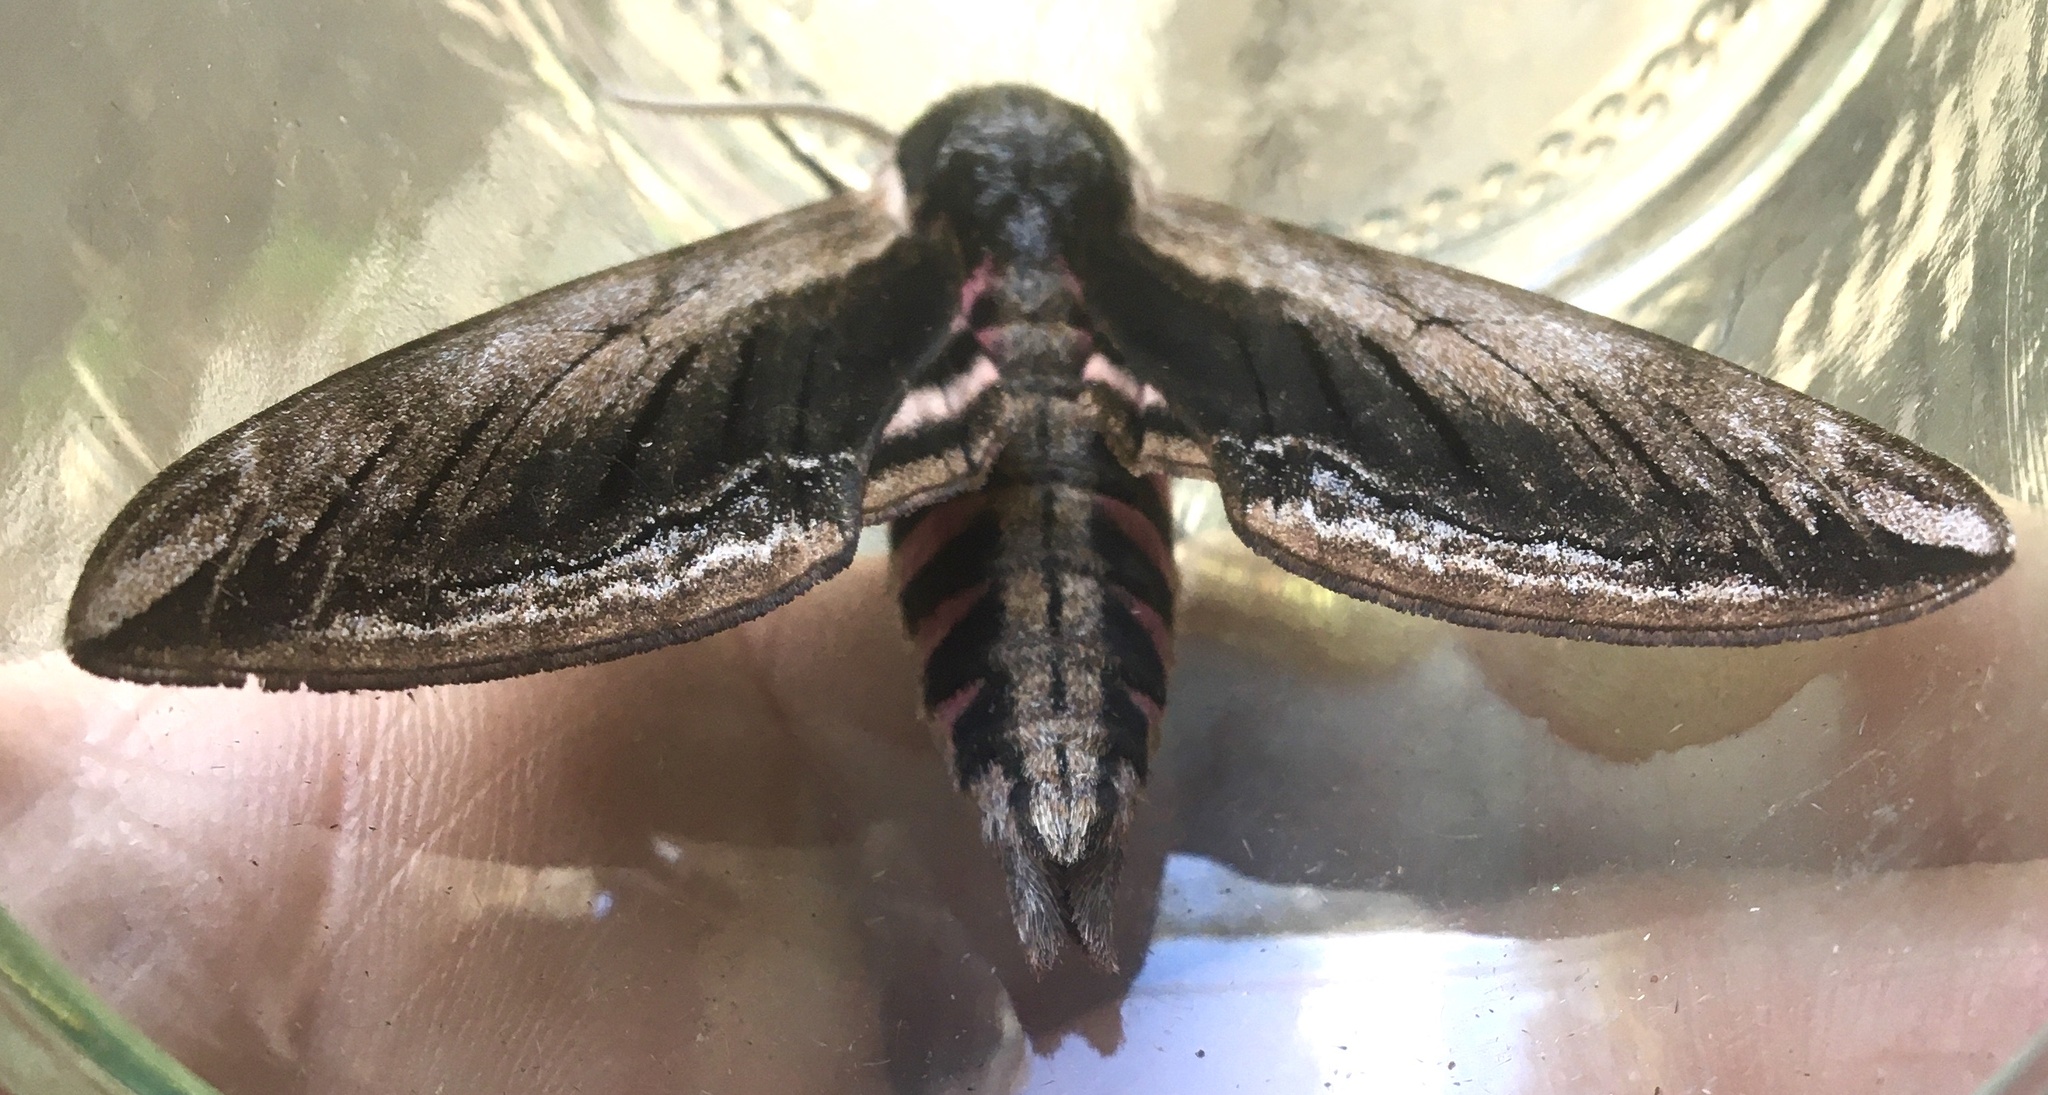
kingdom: Animalia
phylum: Arthropoda
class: Insecta
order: Lepidoptera
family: Sphingidae
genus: Sphinx
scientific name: Sphinx ligustri
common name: Privet hawk-moth
